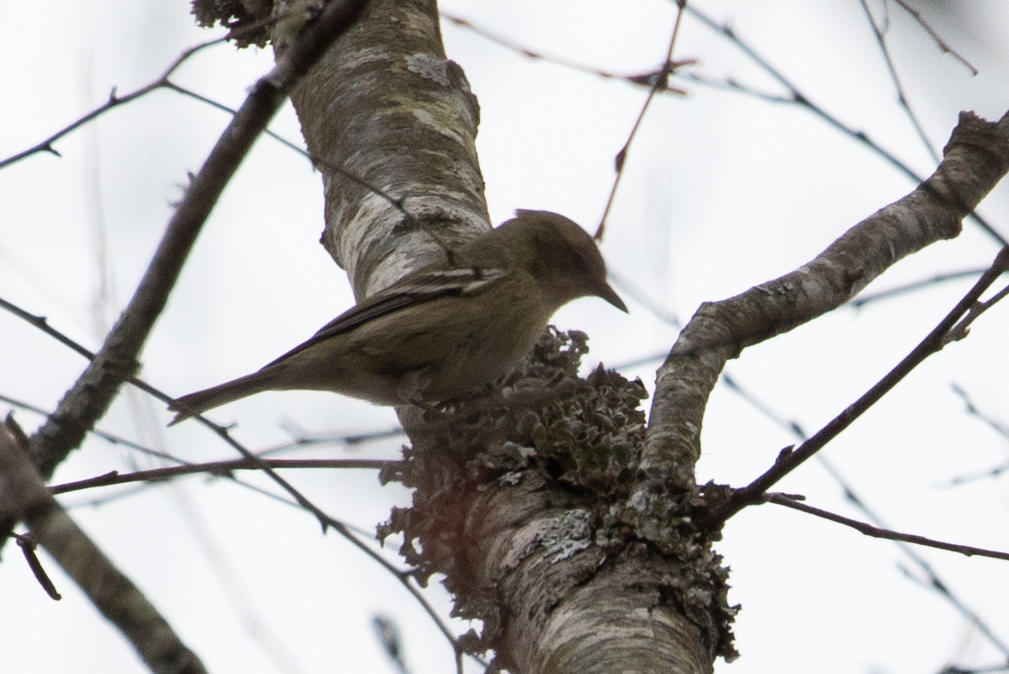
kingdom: Animalia
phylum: Chordata
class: Aves
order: Passeriformes
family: Parulidae
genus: Setophaga
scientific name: Setophaga pinus
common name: Pine warbler
